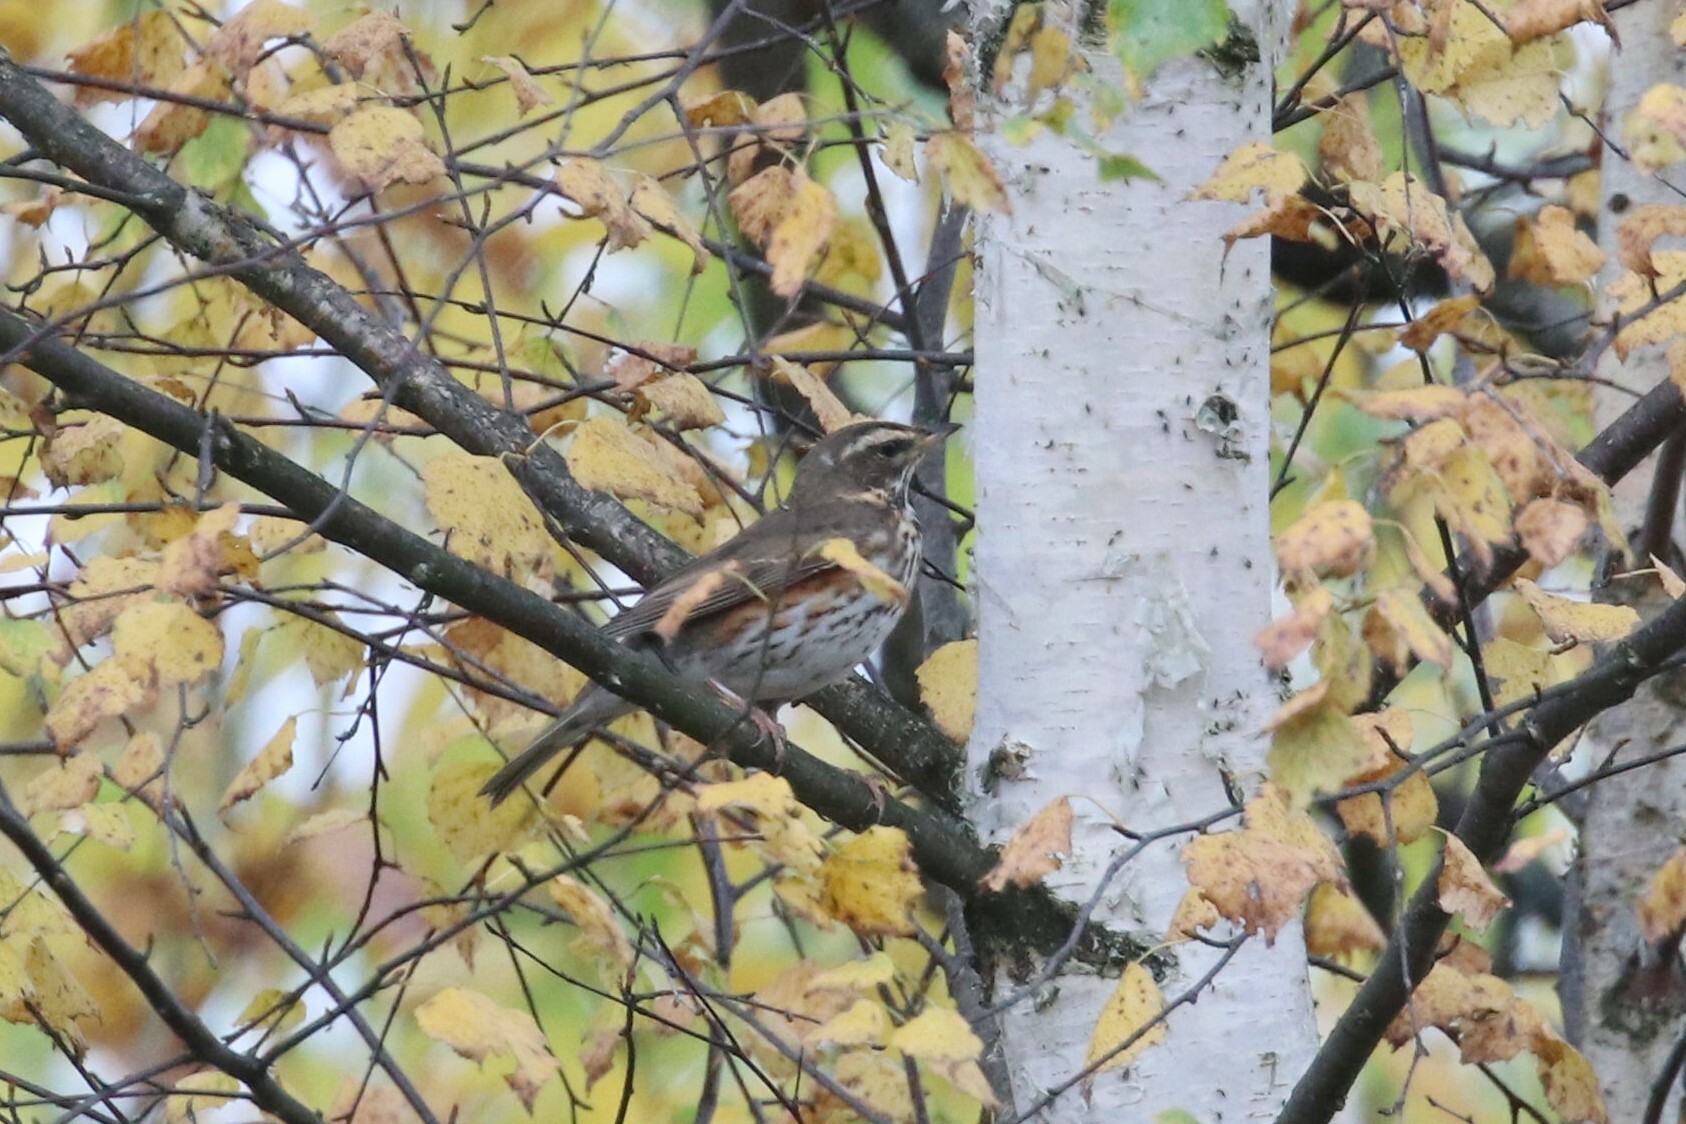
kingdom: Animalia
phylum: Chordata
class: Aves
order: Passeriformes
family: Turdidae
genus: Turdus
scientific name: Turdus iliacus
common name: Redwing
